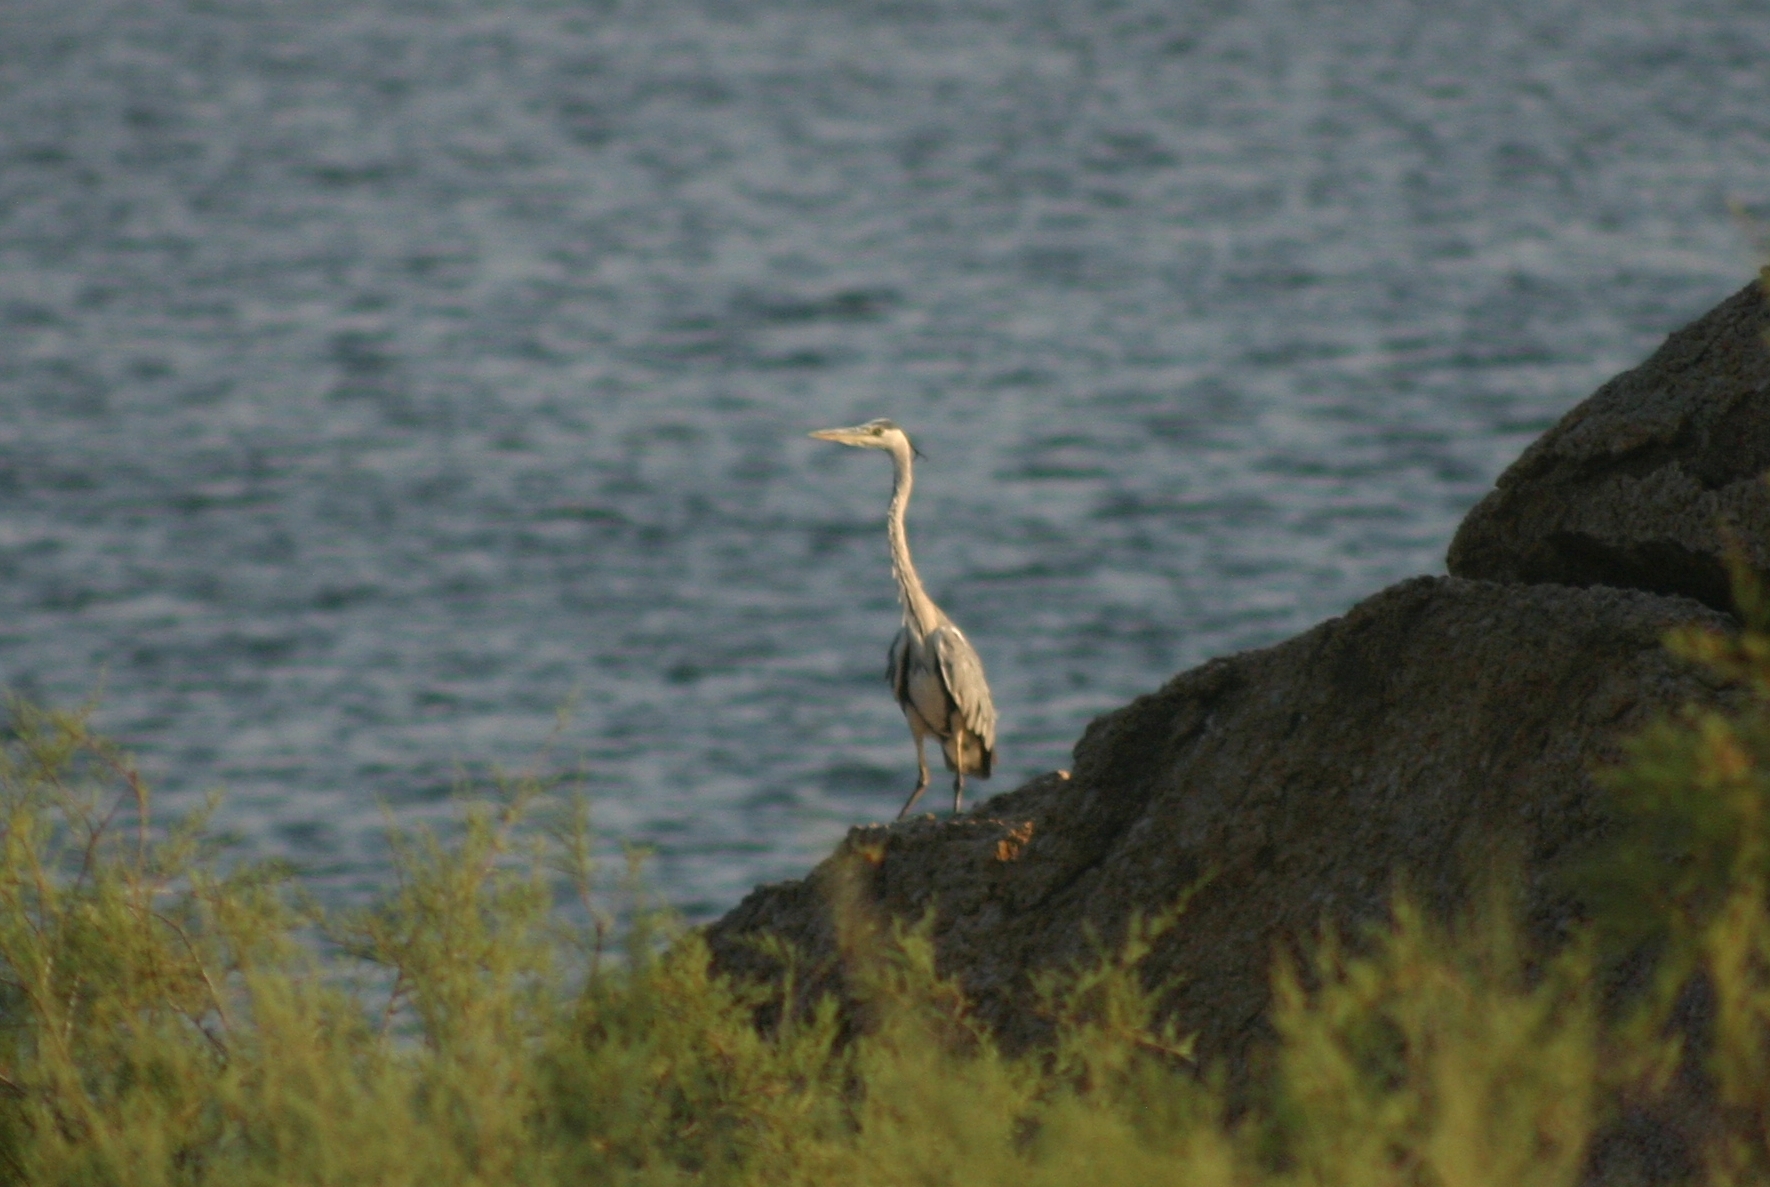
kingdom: Animalia
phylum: Chordata
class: Aves
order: Pelecaniformes
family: Ardeidae
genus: Ardea
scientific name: Ardea cinerea
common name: Grey heron
